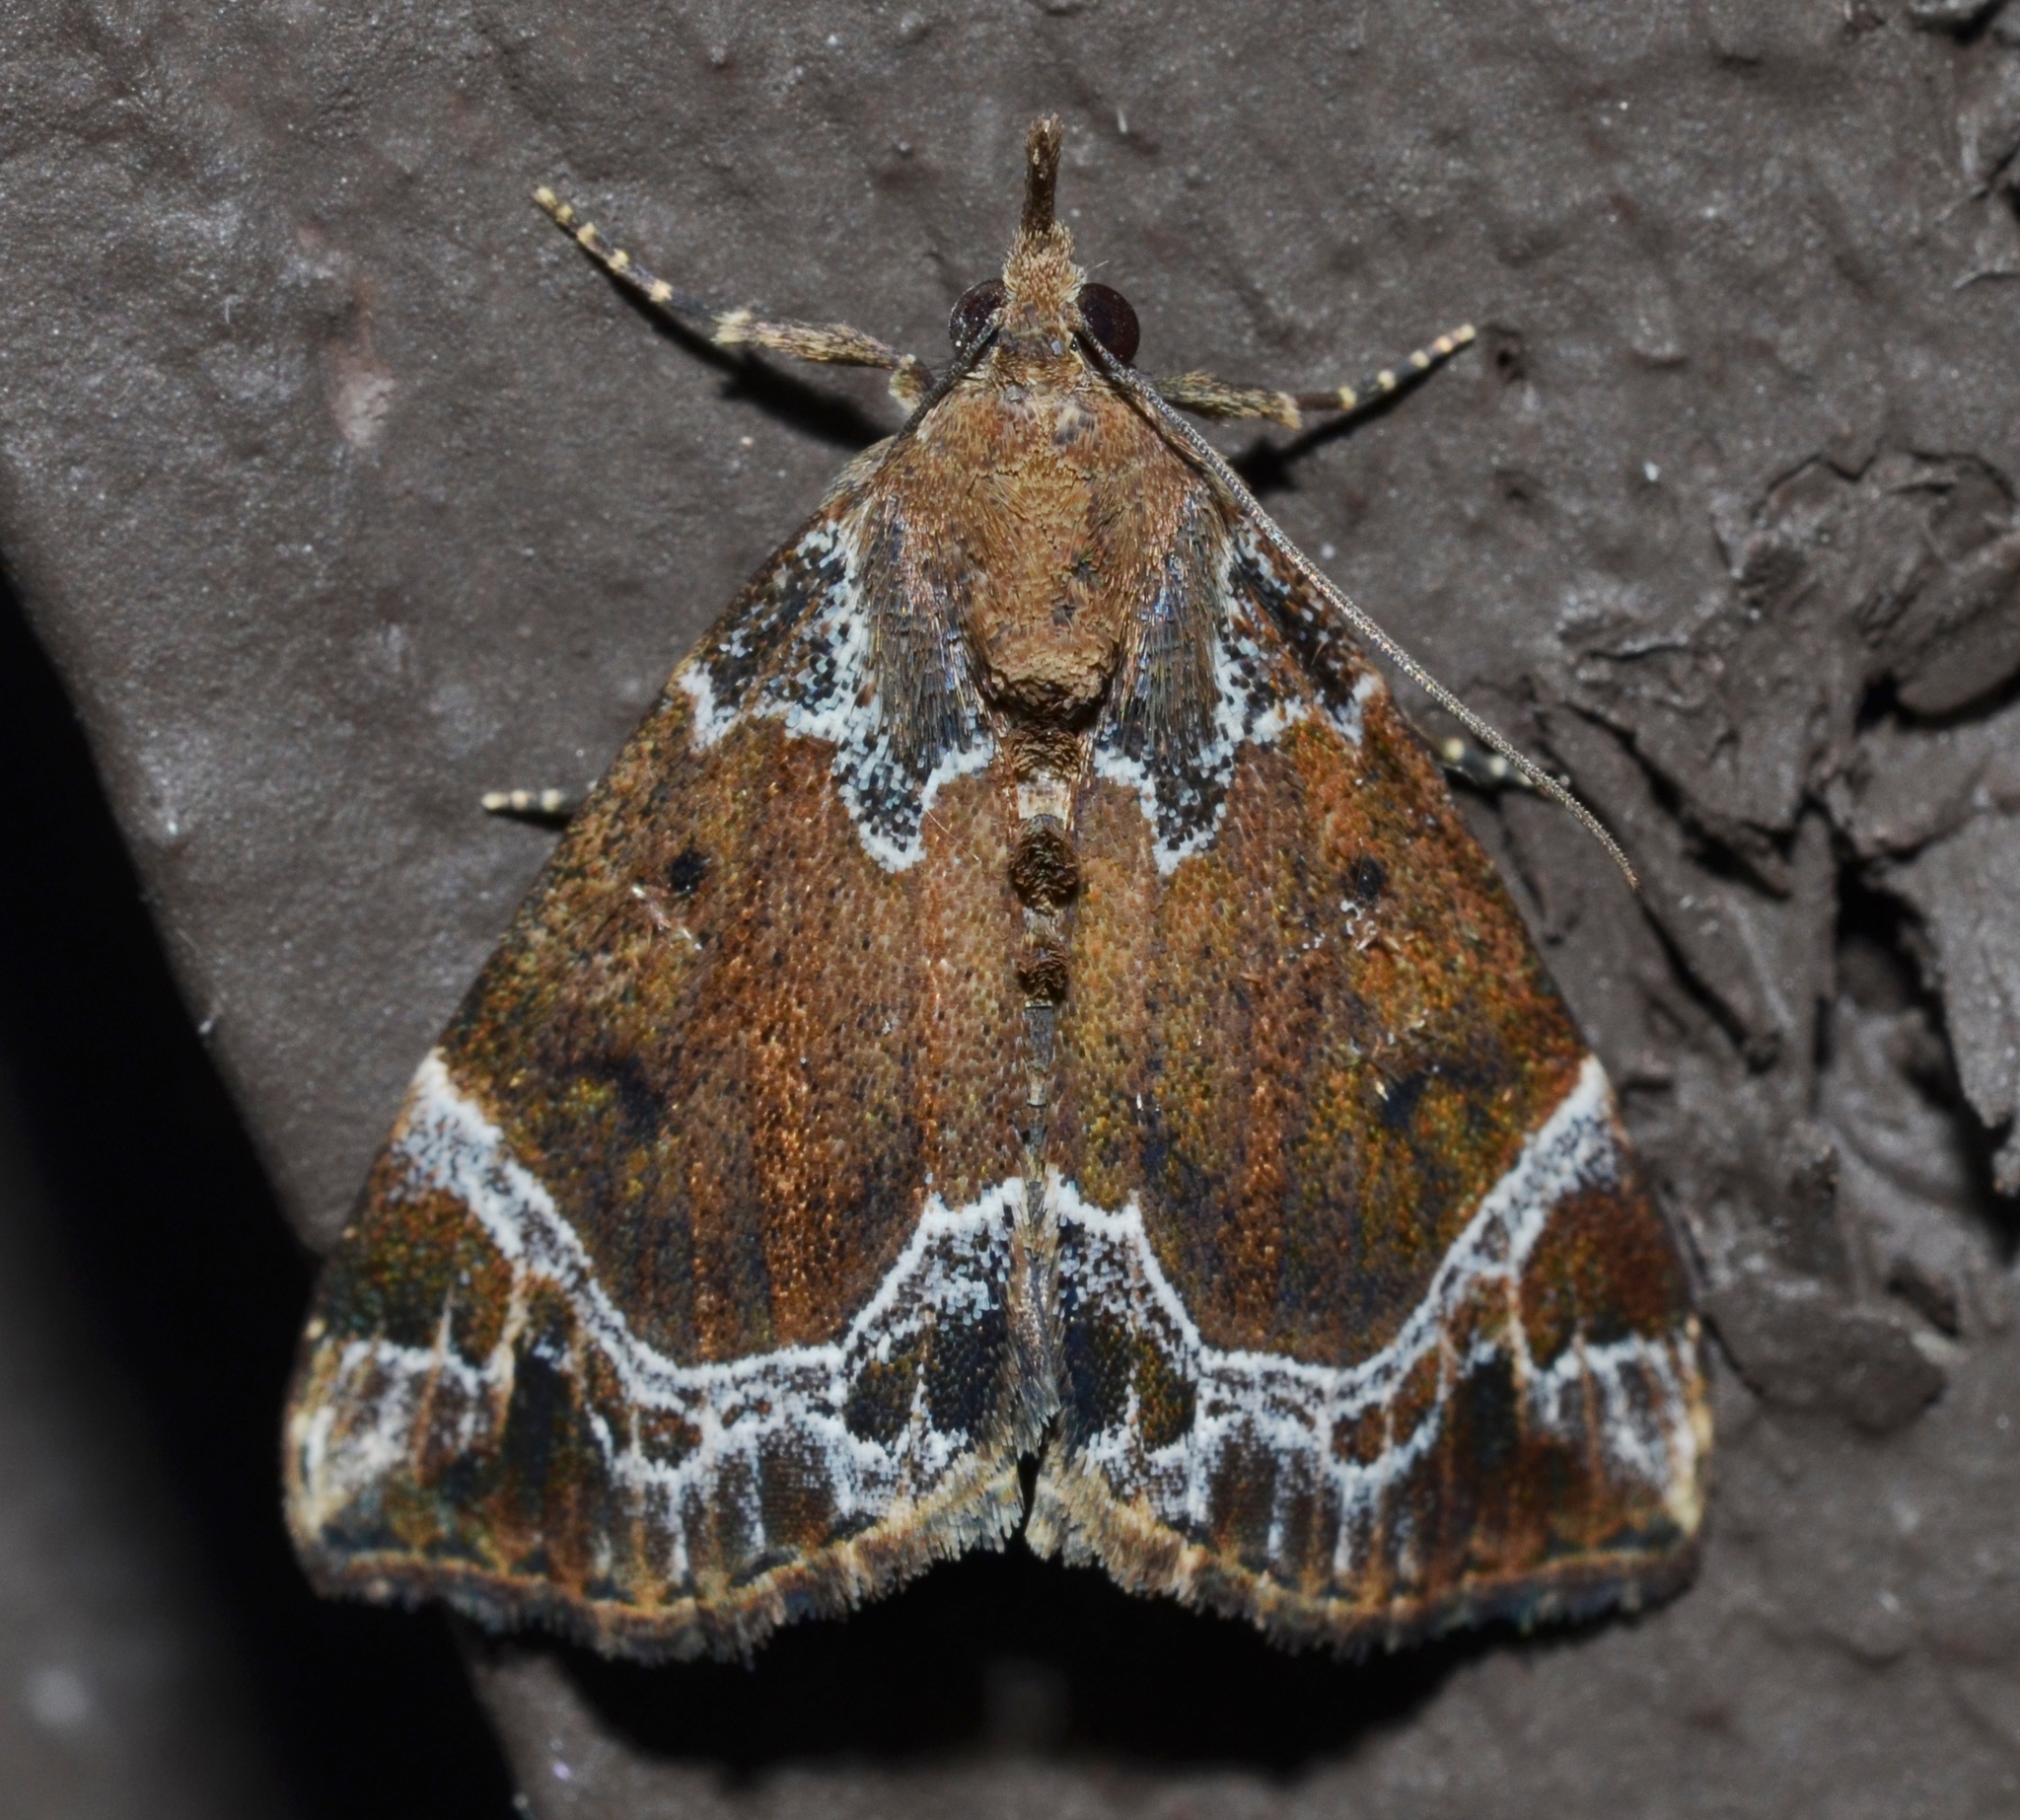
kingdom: Animalia
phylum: Arthropoda
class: Insecta
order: Lepidoptera
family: Erebidae
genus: Hypena
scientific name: Hypena abalienalis
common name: White-lined snout
